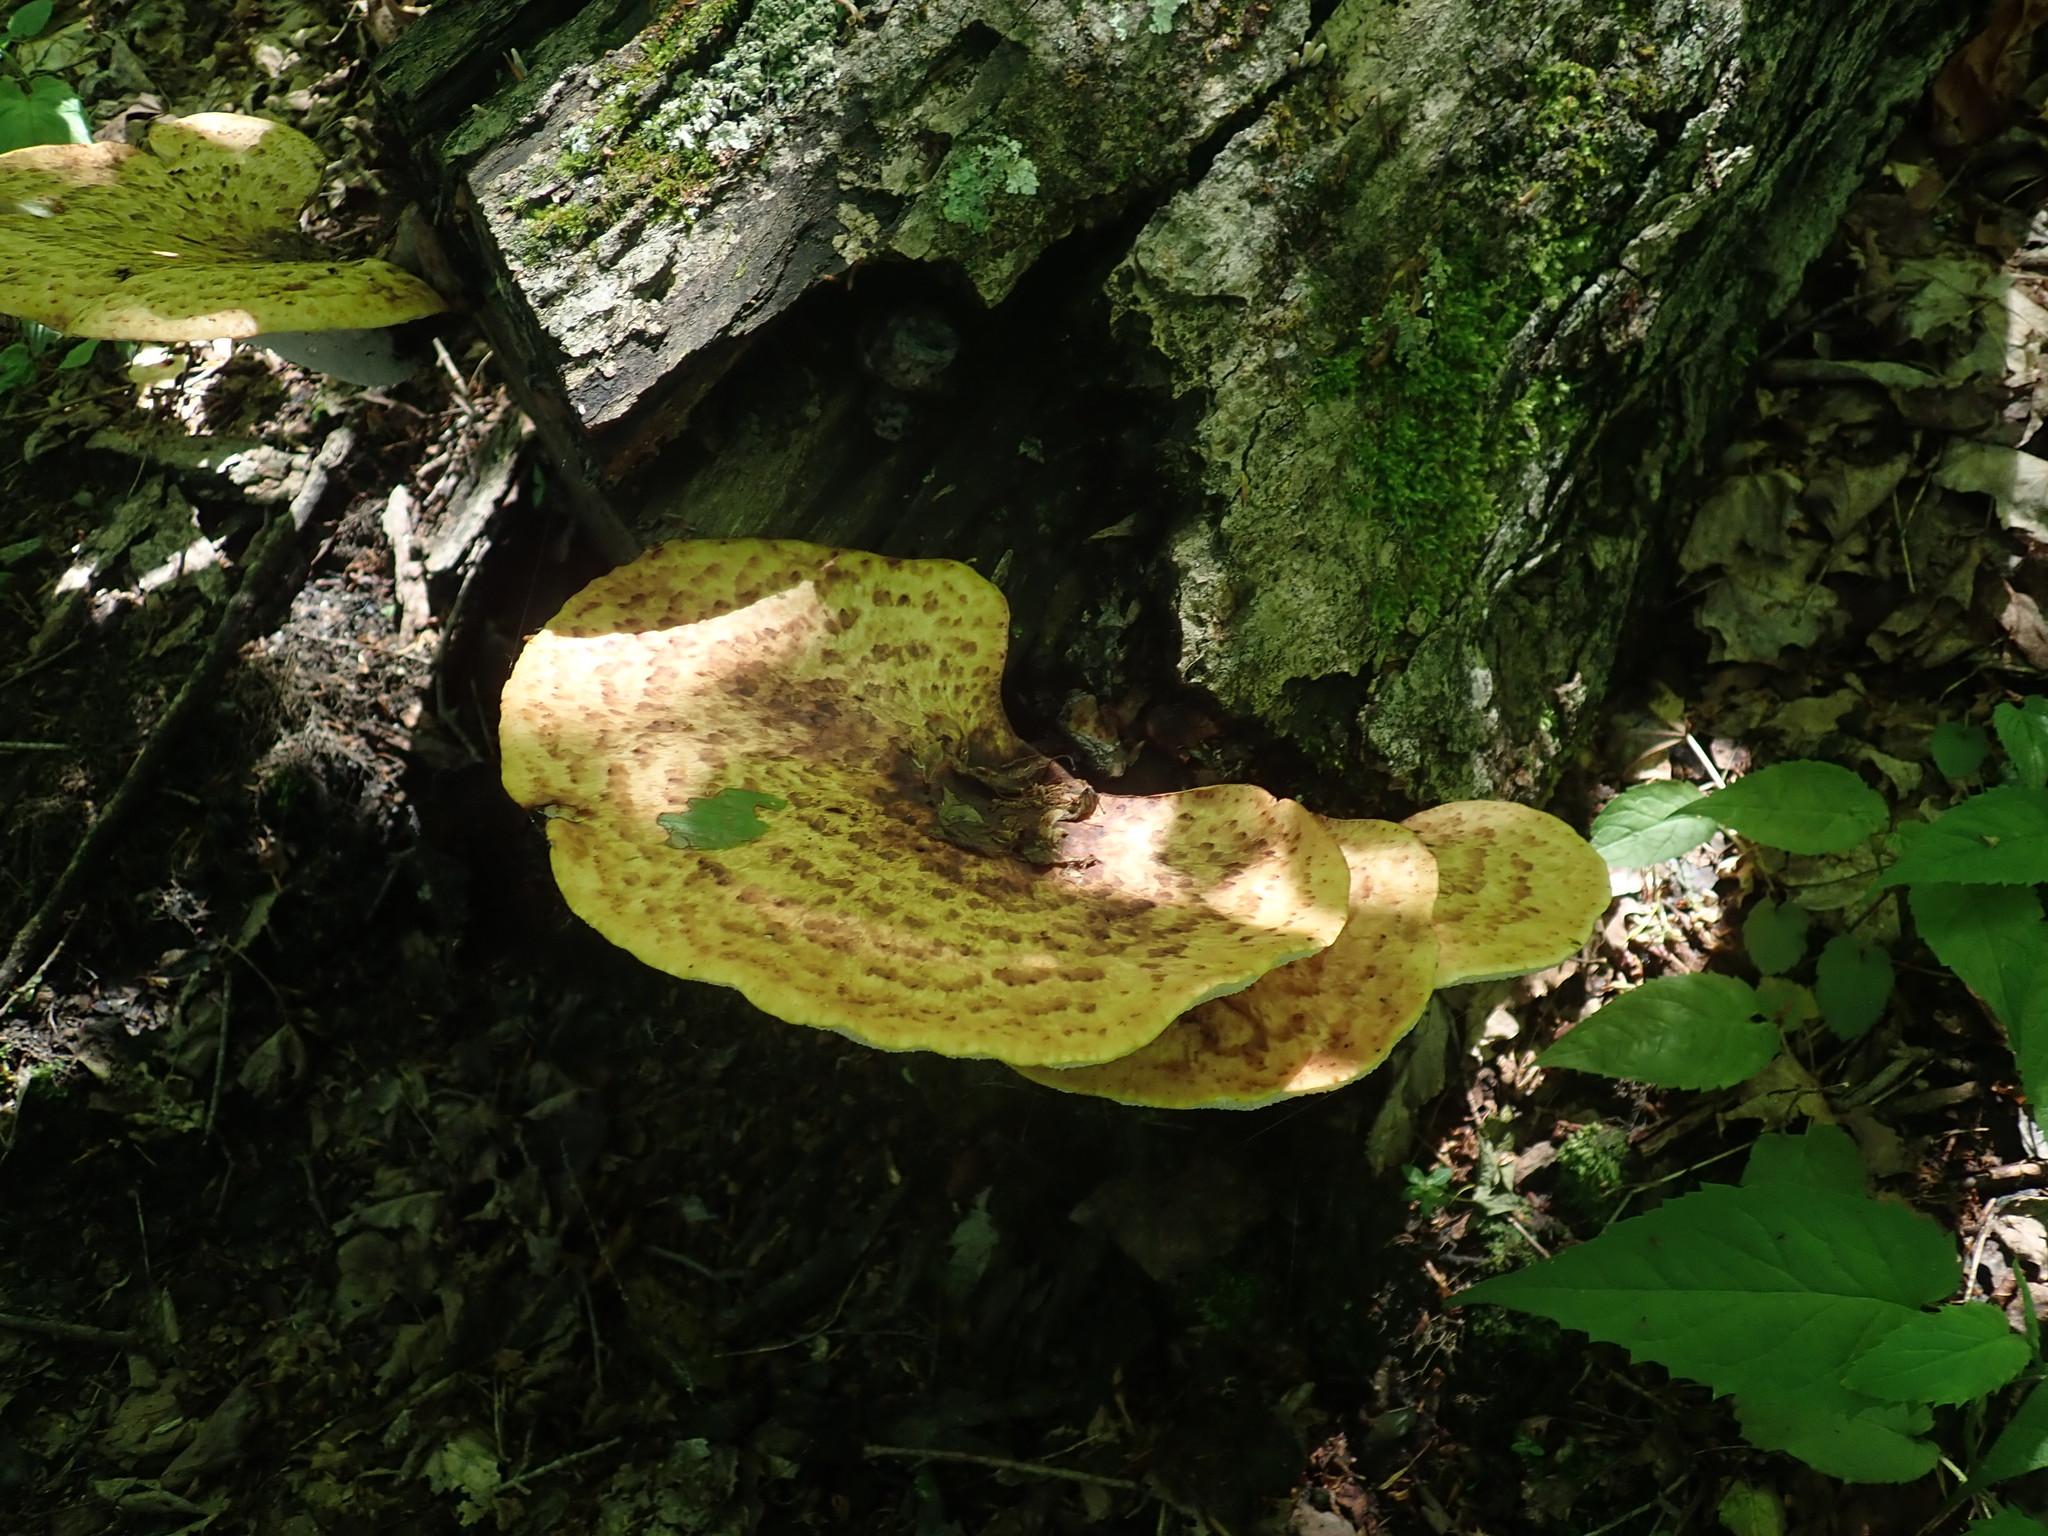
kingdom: Fungi
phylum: Basidiomycota
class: Agaricomycetes
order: Polyporales
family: Polyporaceae
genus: Cerioporus
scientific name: Cerioporus squamosus
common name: Dryad's saddle
